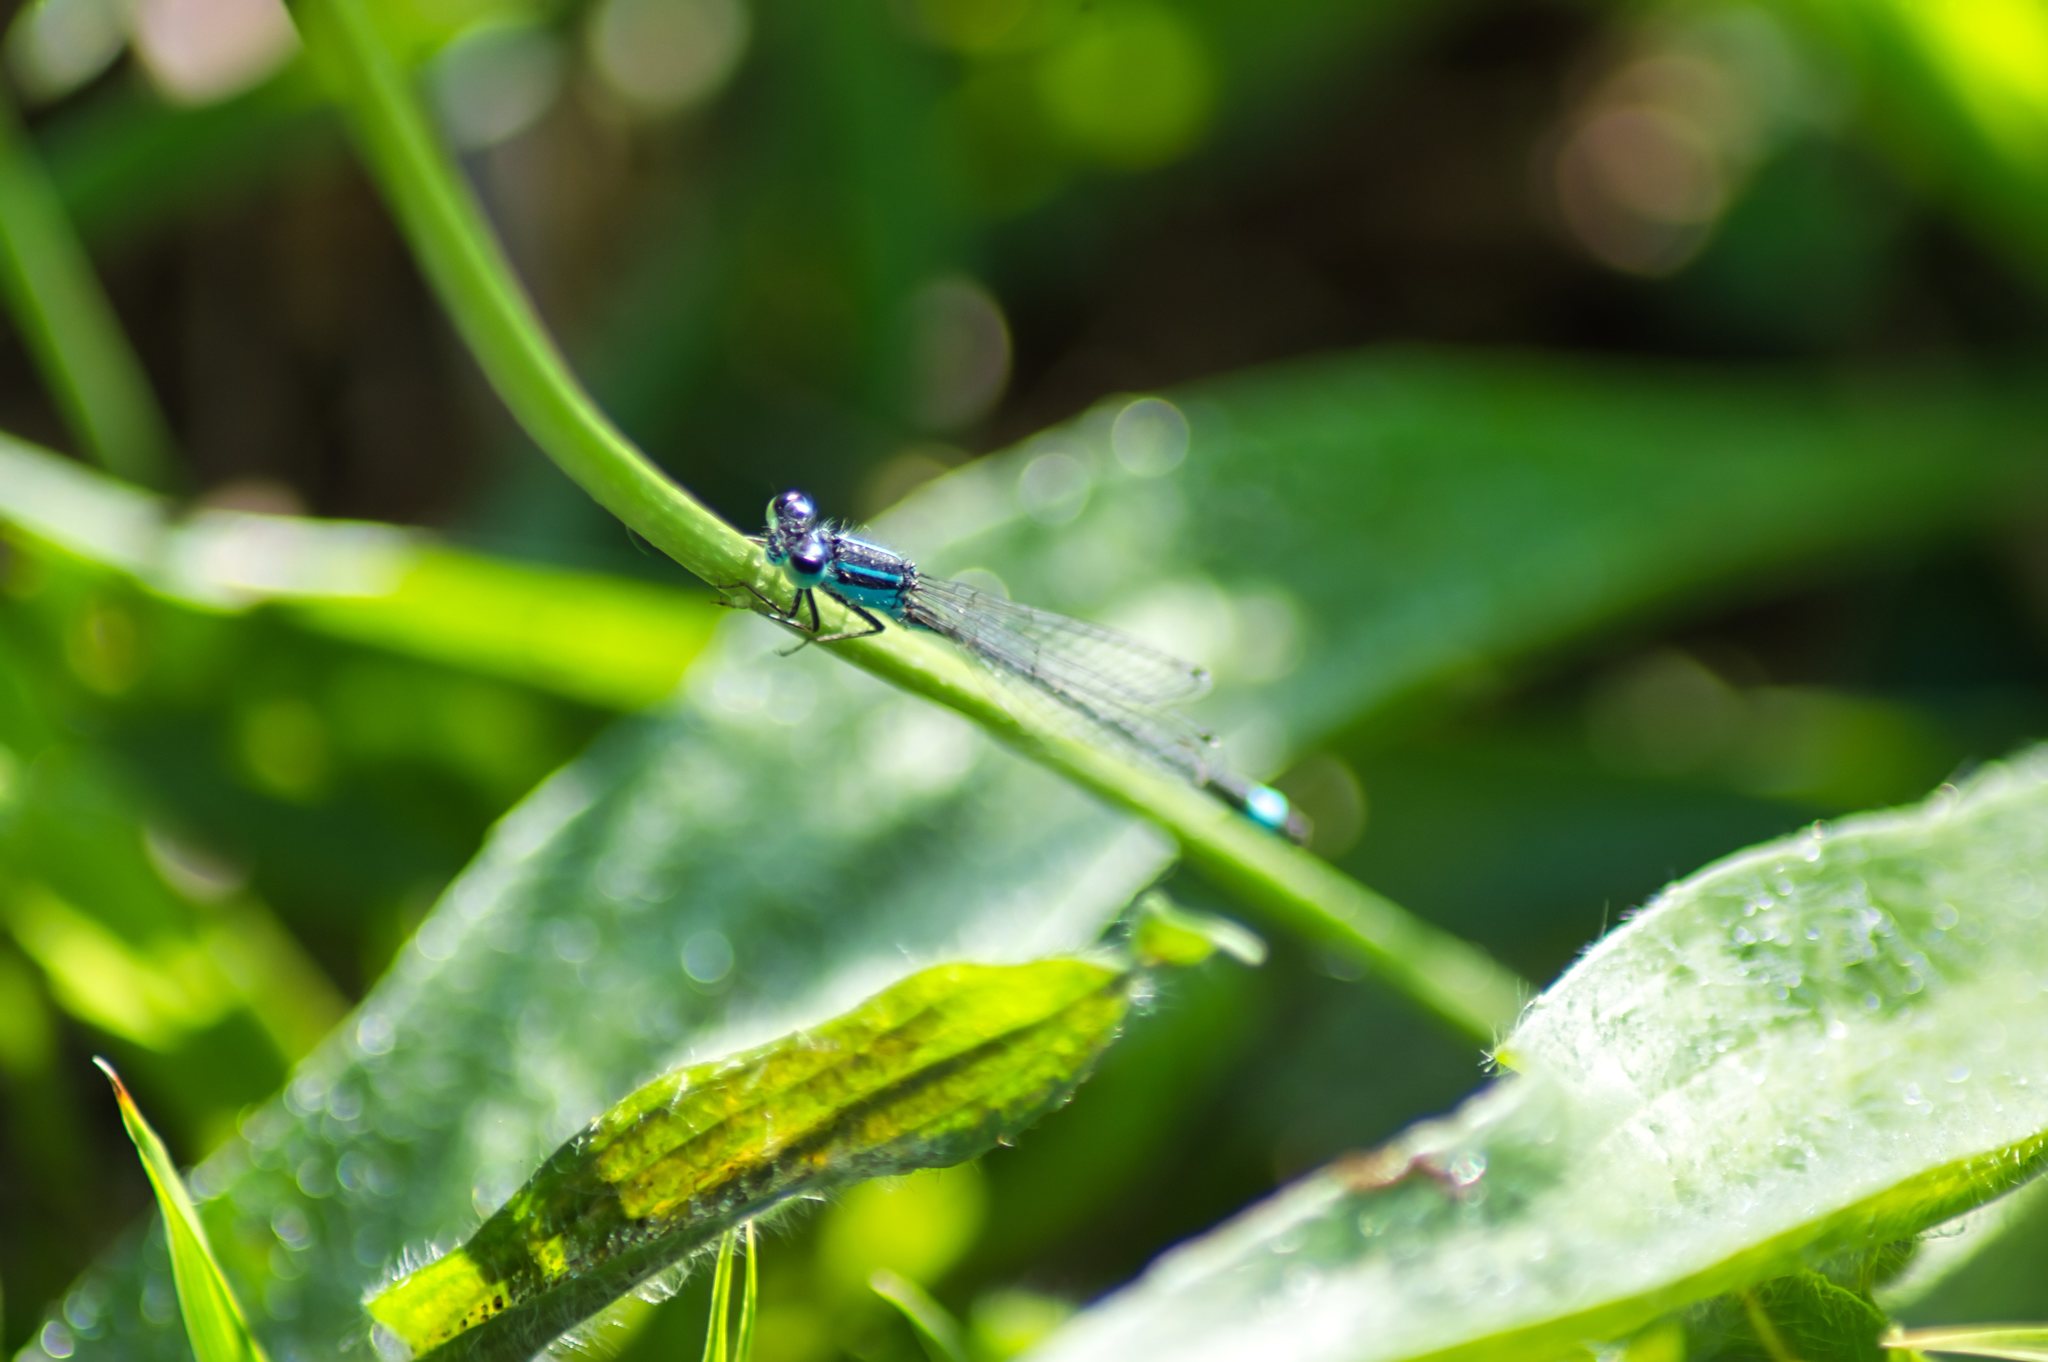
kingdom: Animalia
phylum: Arthropoda
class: Insecta
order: Odonata
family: Coenagrionidae
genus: Ischnura
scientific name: Ischnura elegans
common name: Blue-tailed damselfly
